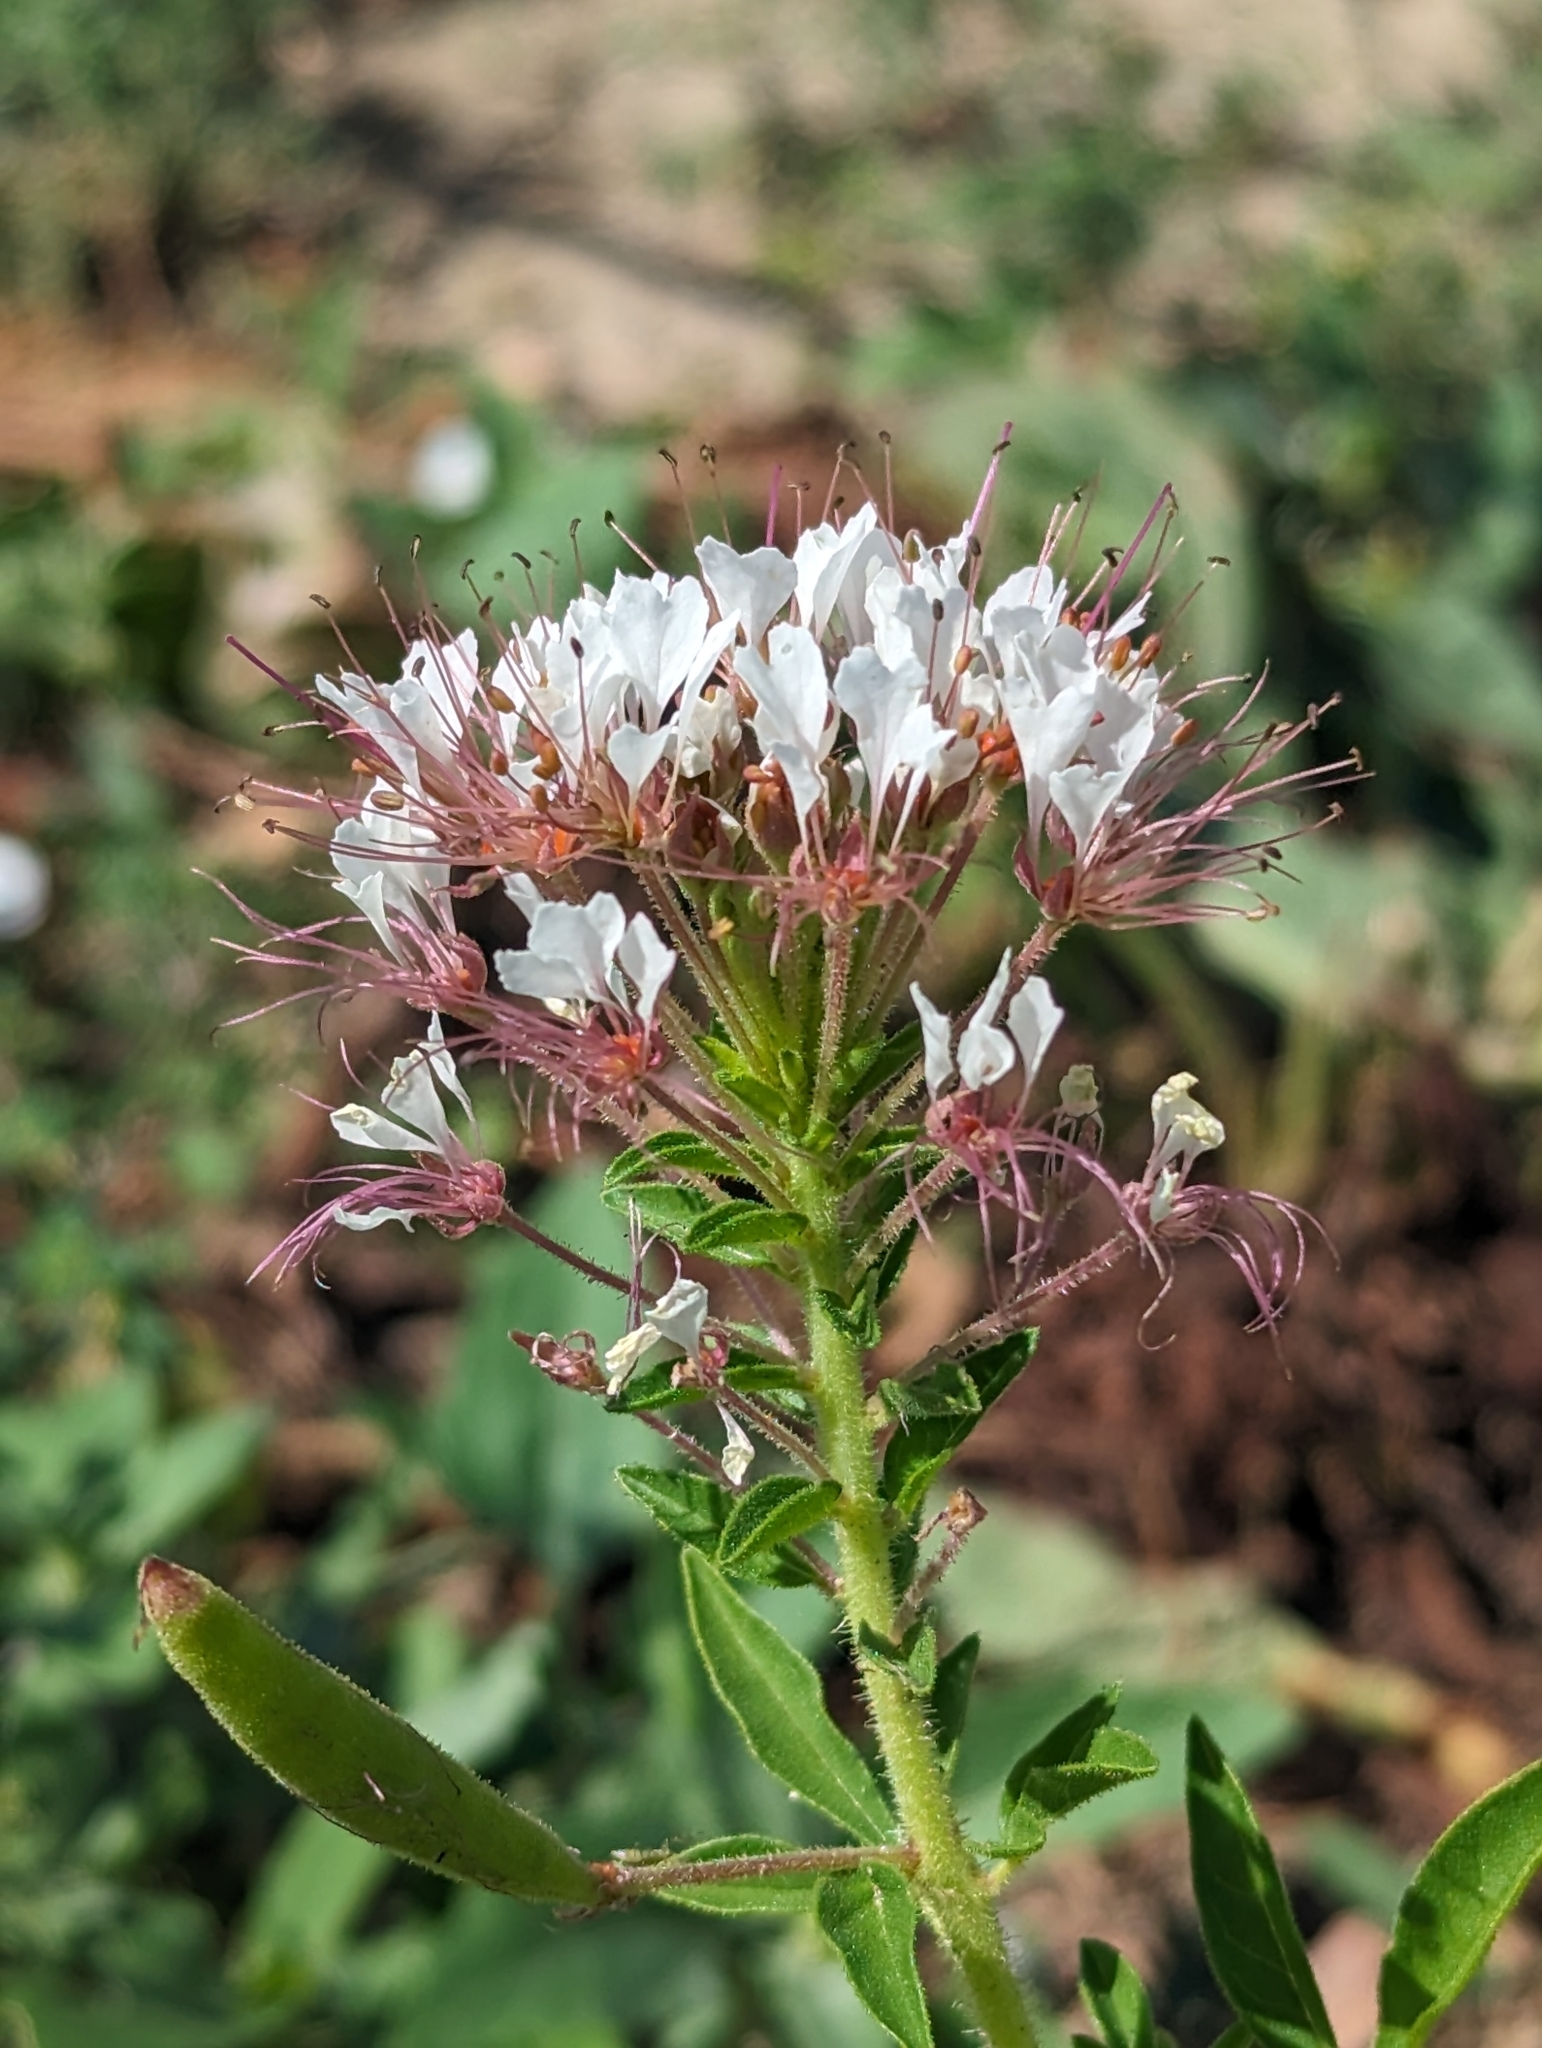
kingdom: Plantae
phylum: Tracheophyta
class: Magnoliopsida
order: Brassicales
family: Cleomaceae
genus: Polanisia
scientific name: Polanisia dodecandra
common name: Clammyweed
